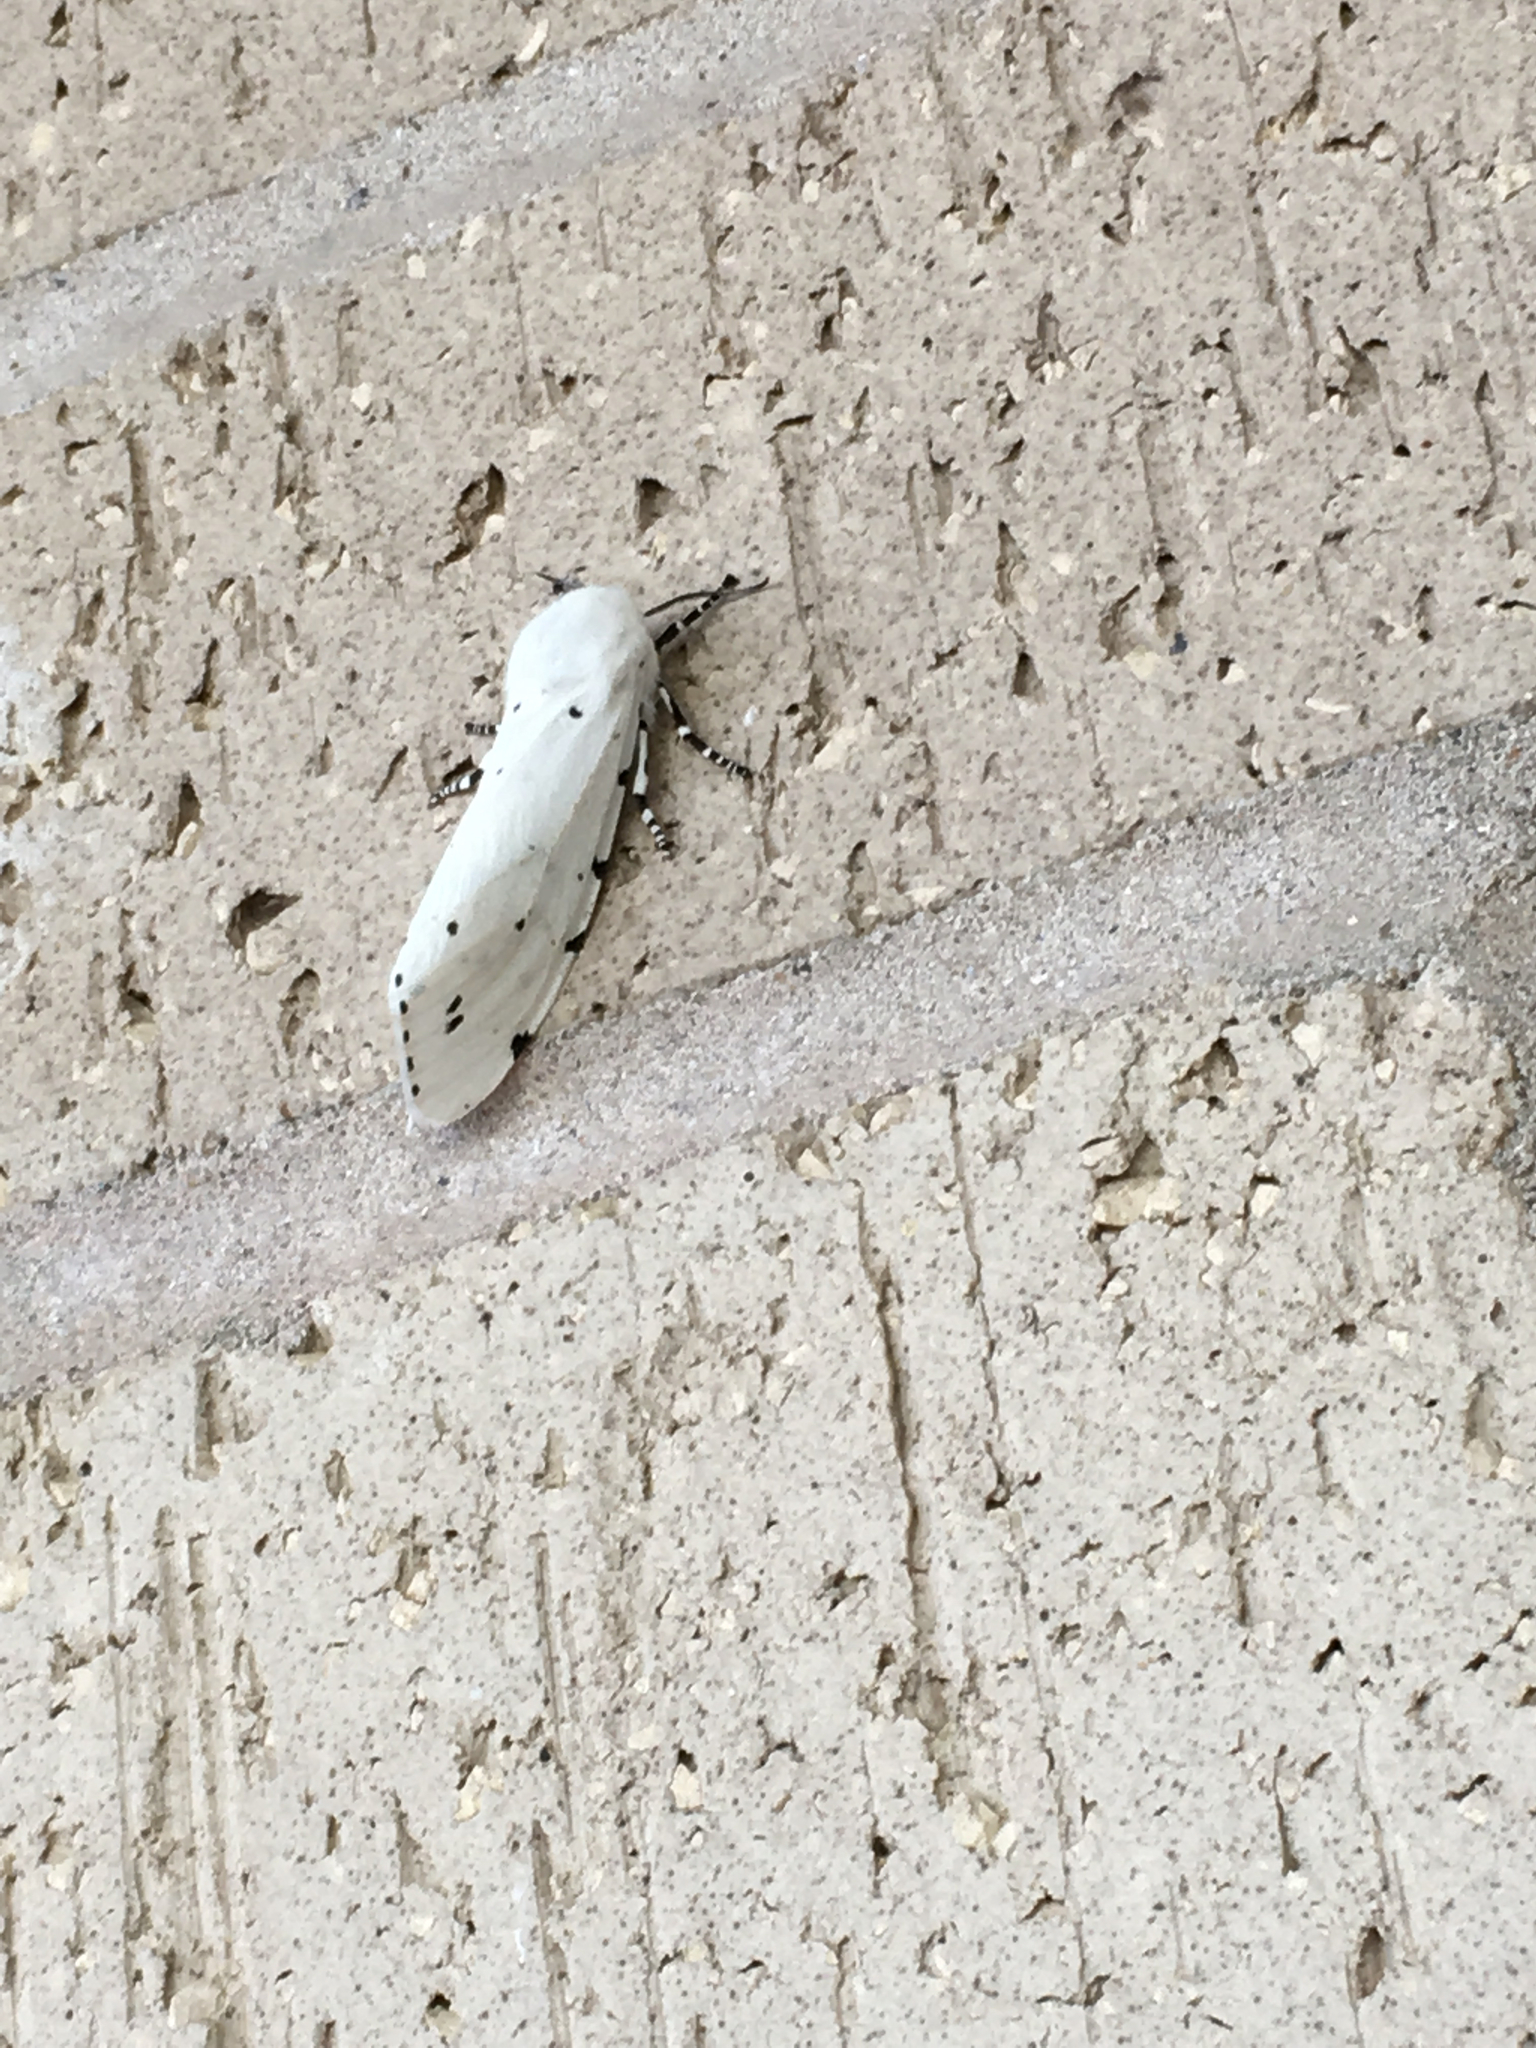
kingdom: Animalia
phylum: Arthropoda
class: Insecta
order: Lepidoptera
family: Erebidae
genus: Estigmene
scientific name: Estigmene acrea
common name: Salt marsh moth
